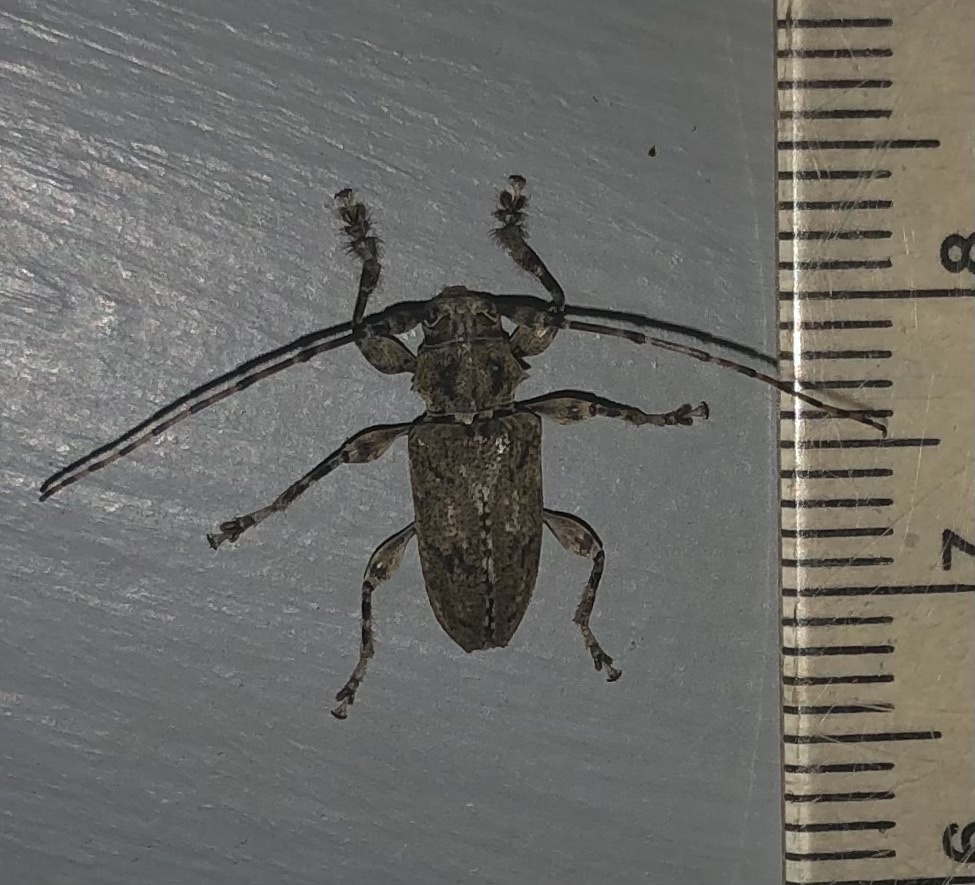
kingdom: Animalia
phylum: Arthropoda
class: Insecta
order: Coleoptera
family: Cerambycidae
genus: Aegomorphus
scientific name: Aegomorphus modestus
